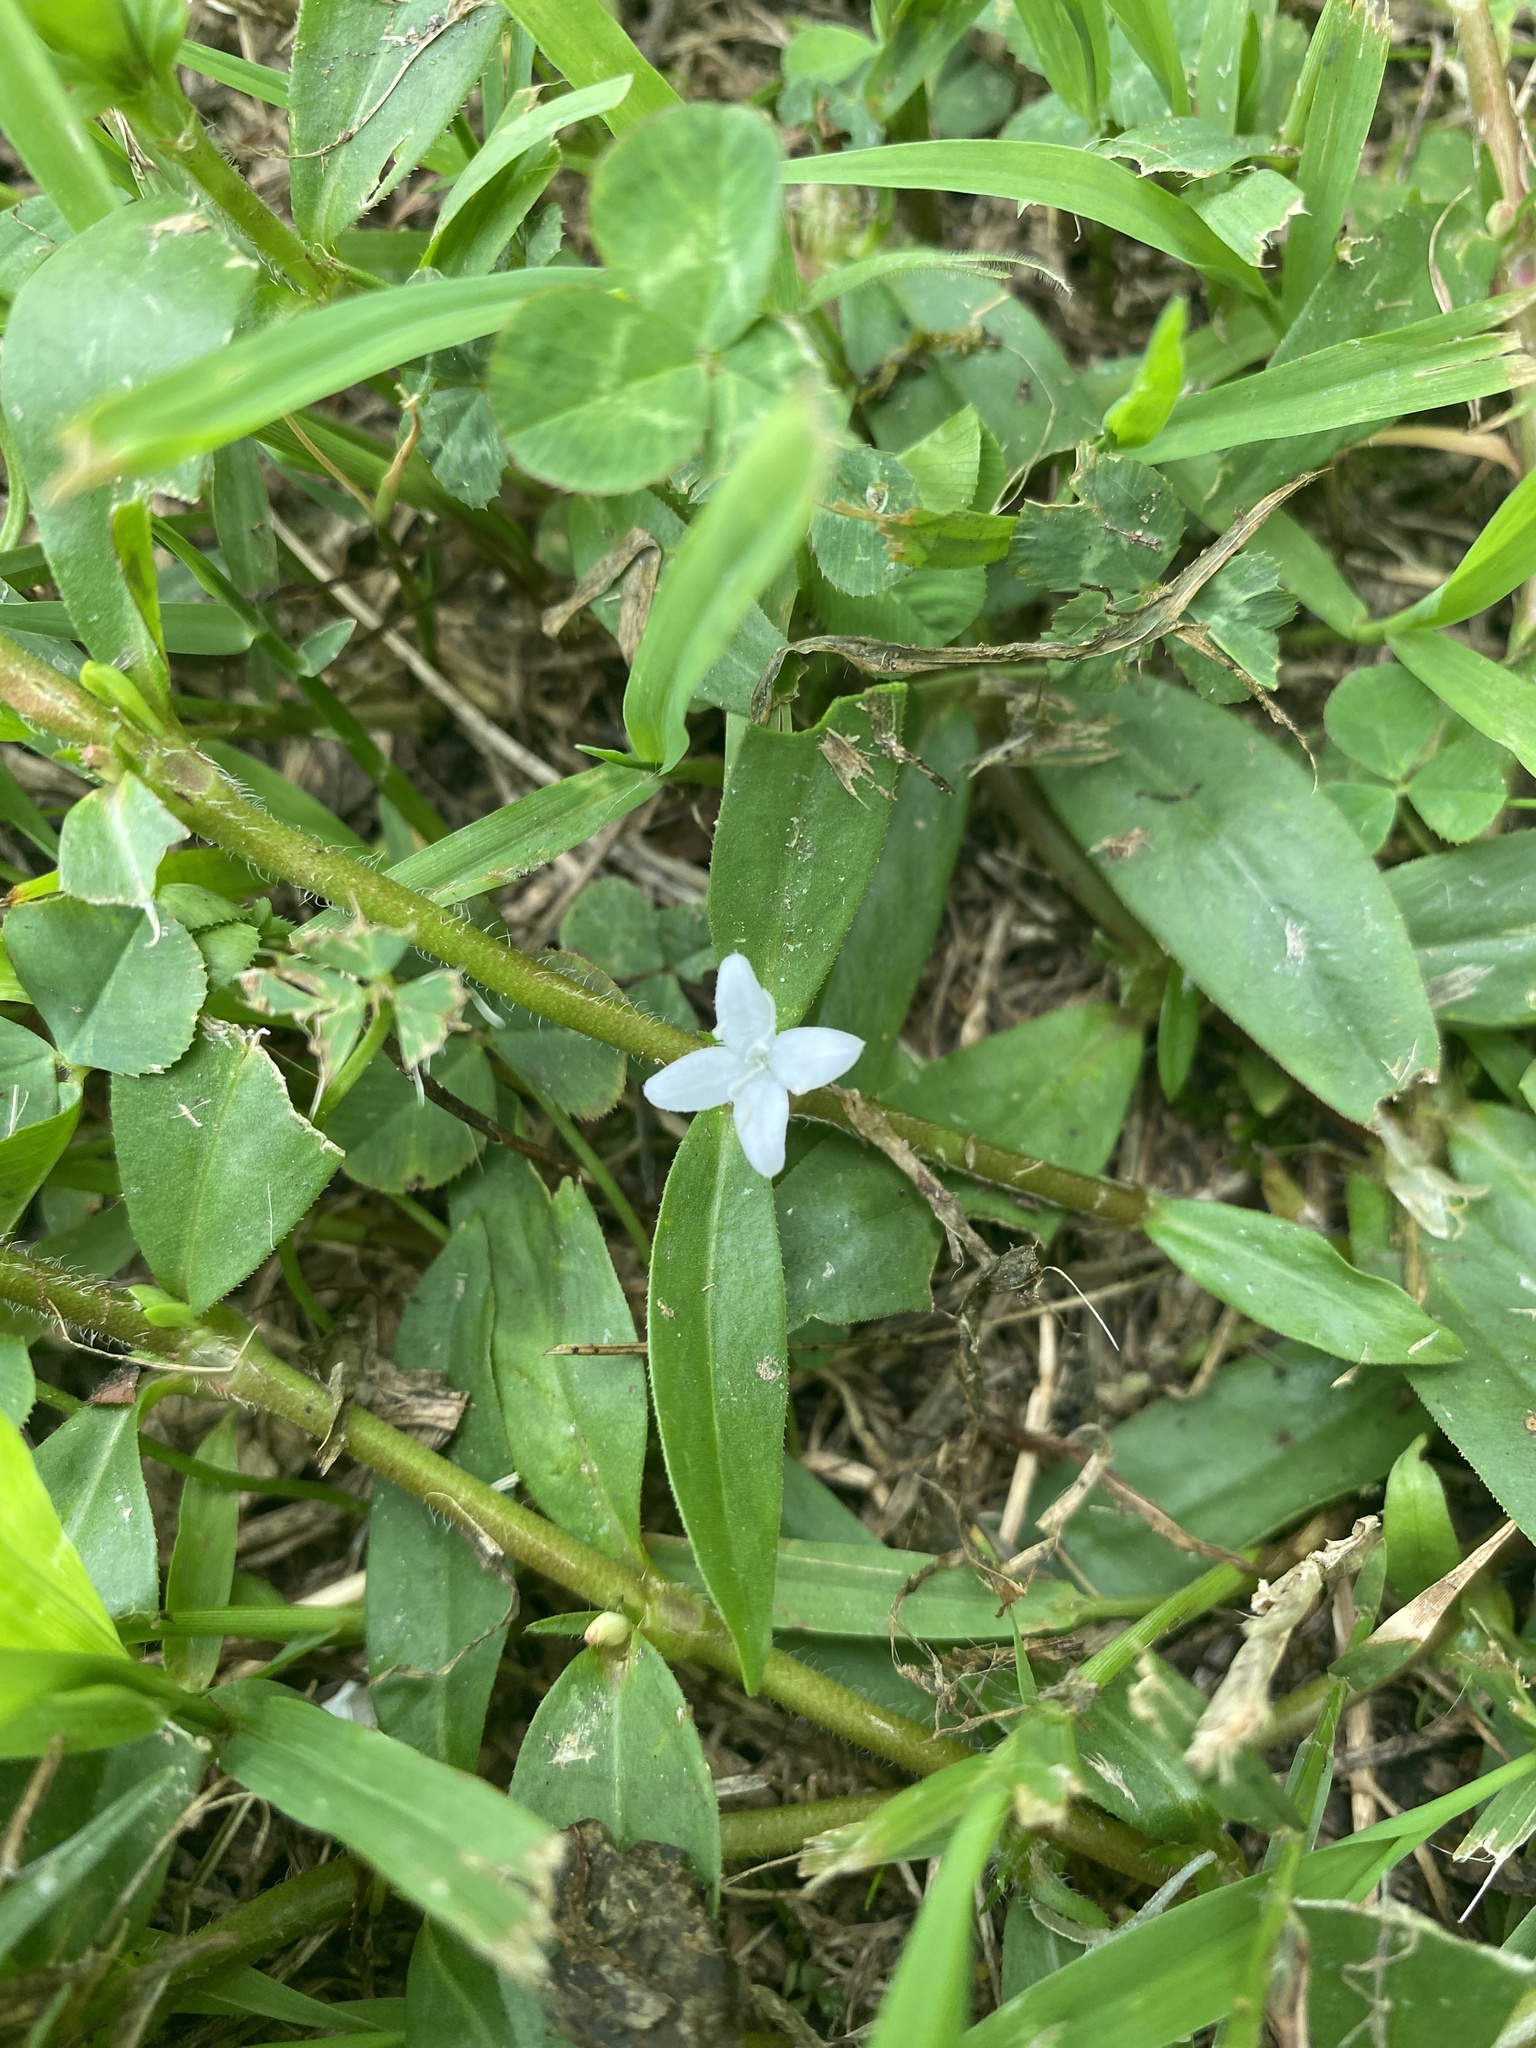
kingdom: Plantae
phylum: Tracheophyta
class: Magnoliopsida
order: Gentianales
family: Rubiaceae
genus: Diodia
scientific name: Diodia virginiana
